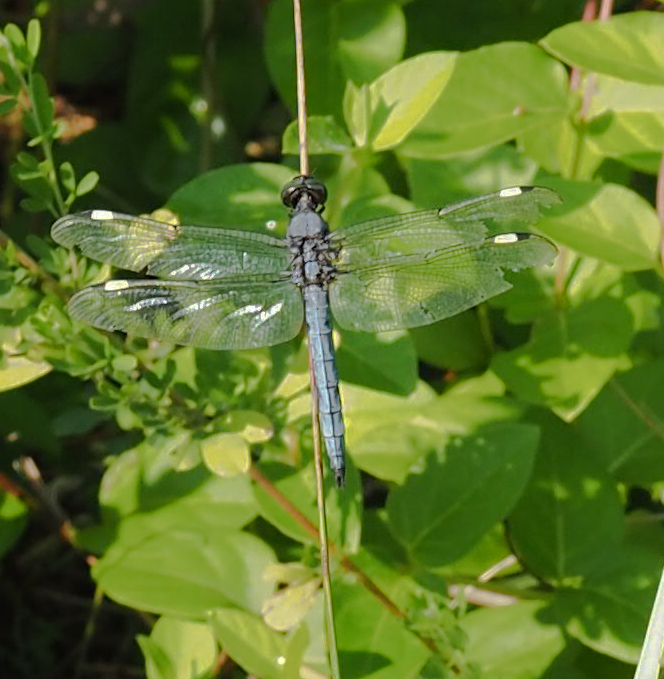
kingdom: Animalia
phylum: Arthropoda
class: Insecta
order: Odonata
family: Libellulidae
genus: Libellula
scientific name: Libellula cyanea
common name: Spangled skimmer
